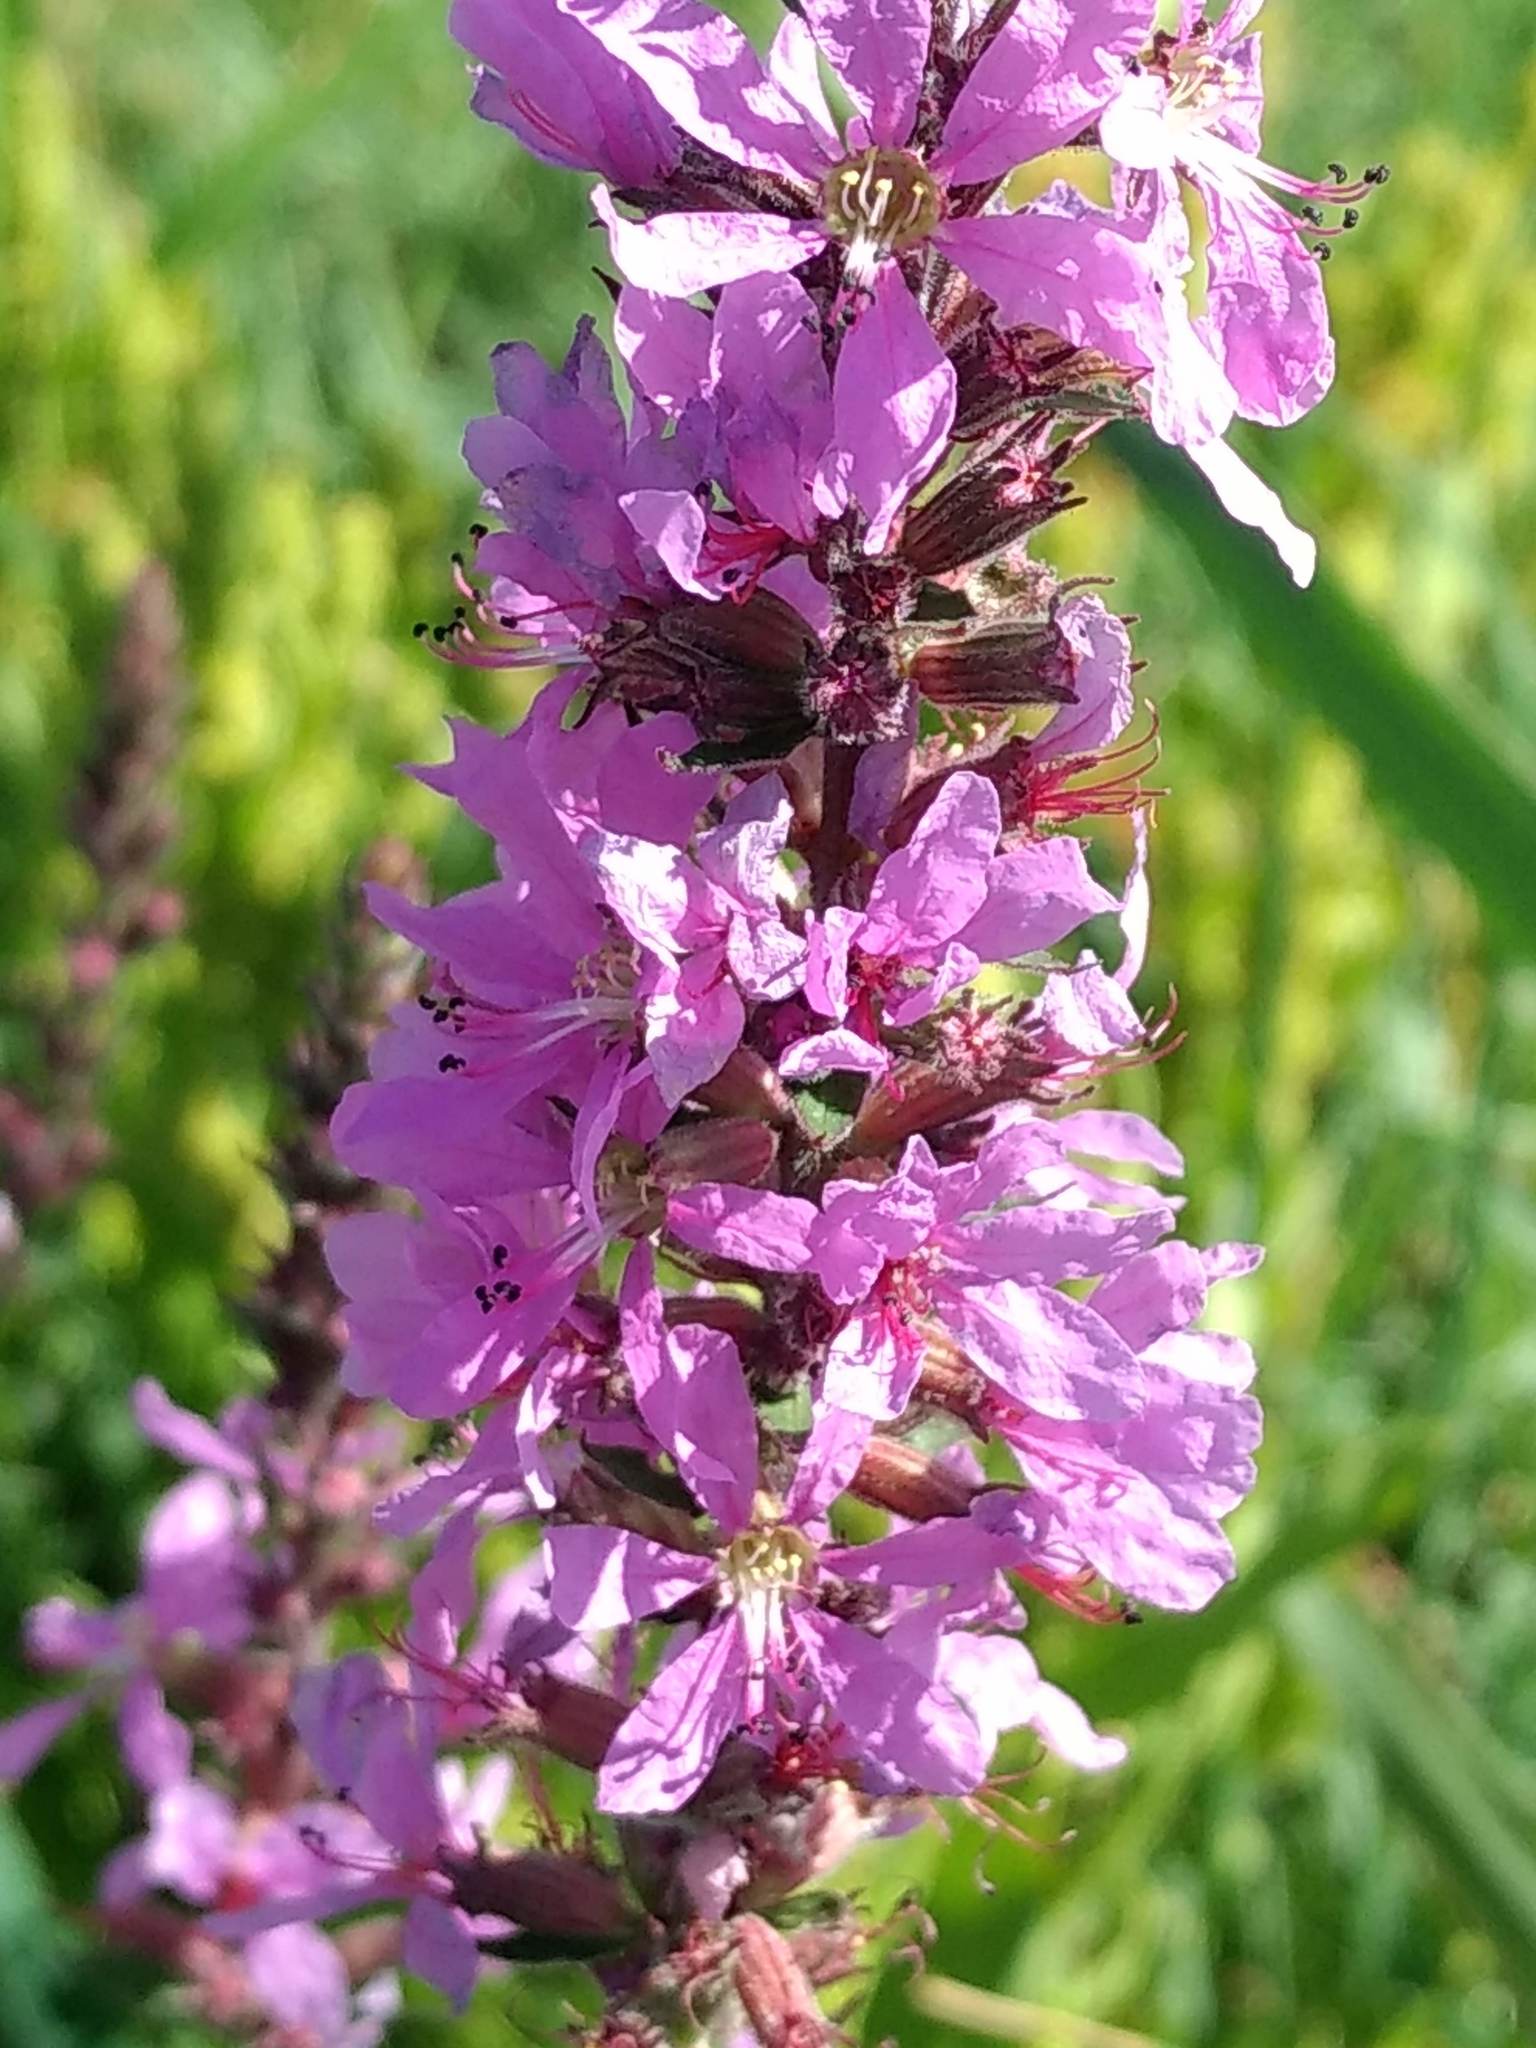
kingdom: Plantae
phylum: Tracheophyta
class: Magnoliopsida
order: Myrtales
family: Lythraceae
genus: Lythrum
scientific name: Lythrum salicaria
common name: Purple loosestrife
